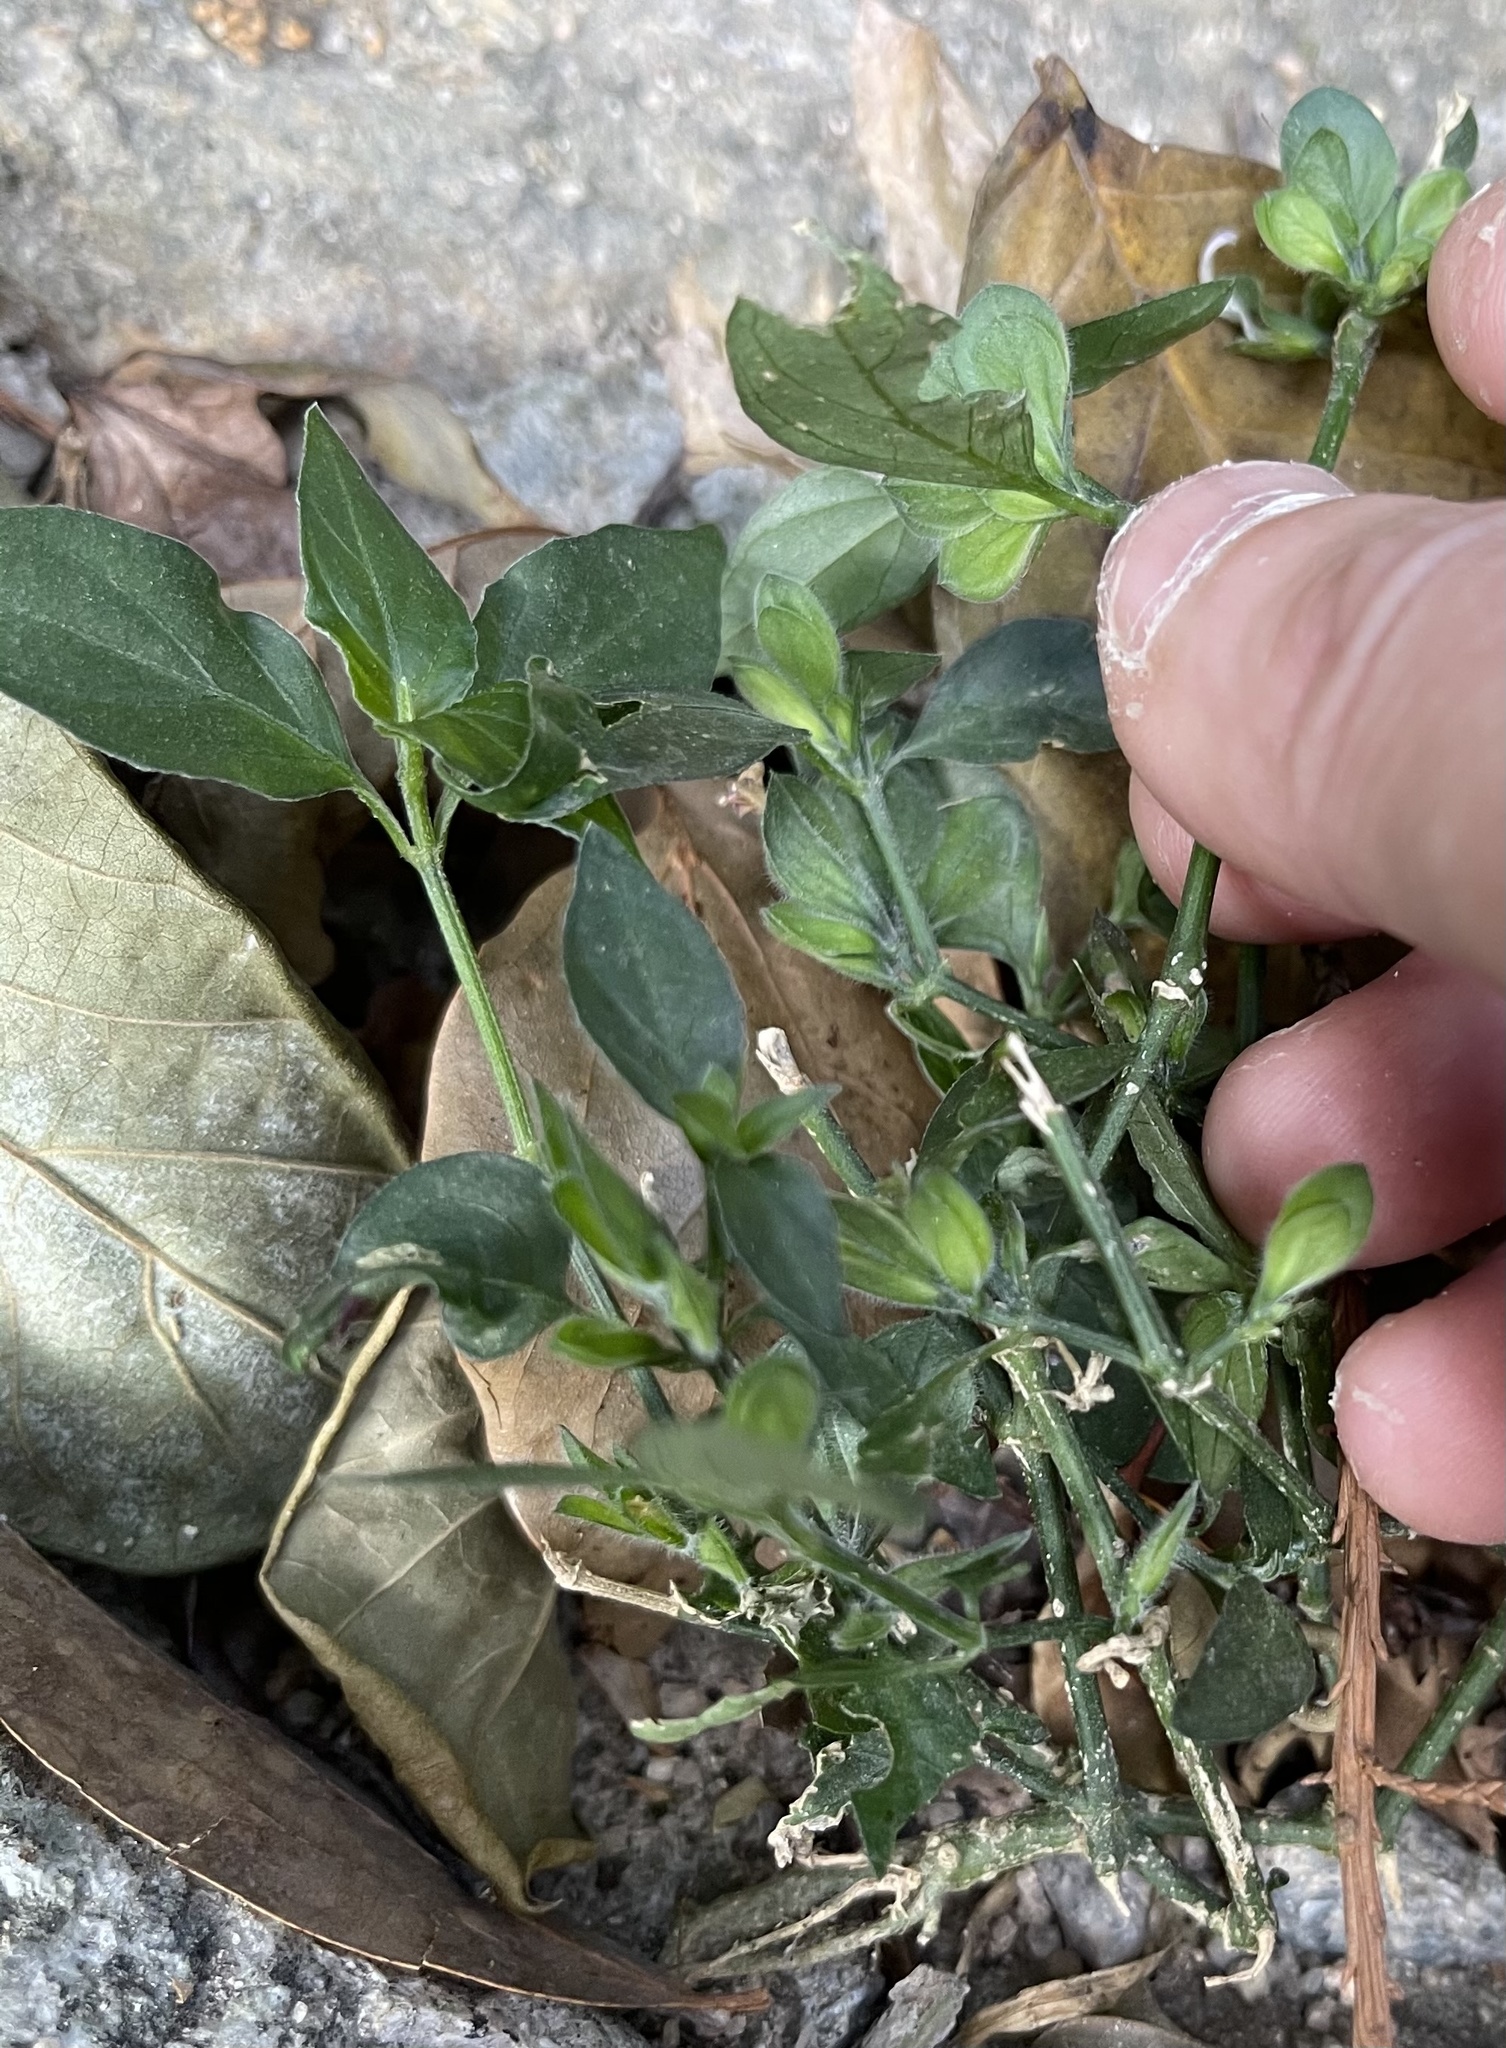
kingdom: Plantae
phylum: Tracheophyta
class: Magnoliopsida
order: Lamiales
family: Acanthaceae
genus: Dicliptera
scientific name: Dicliptera chinensis
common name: Chinese foldwing
